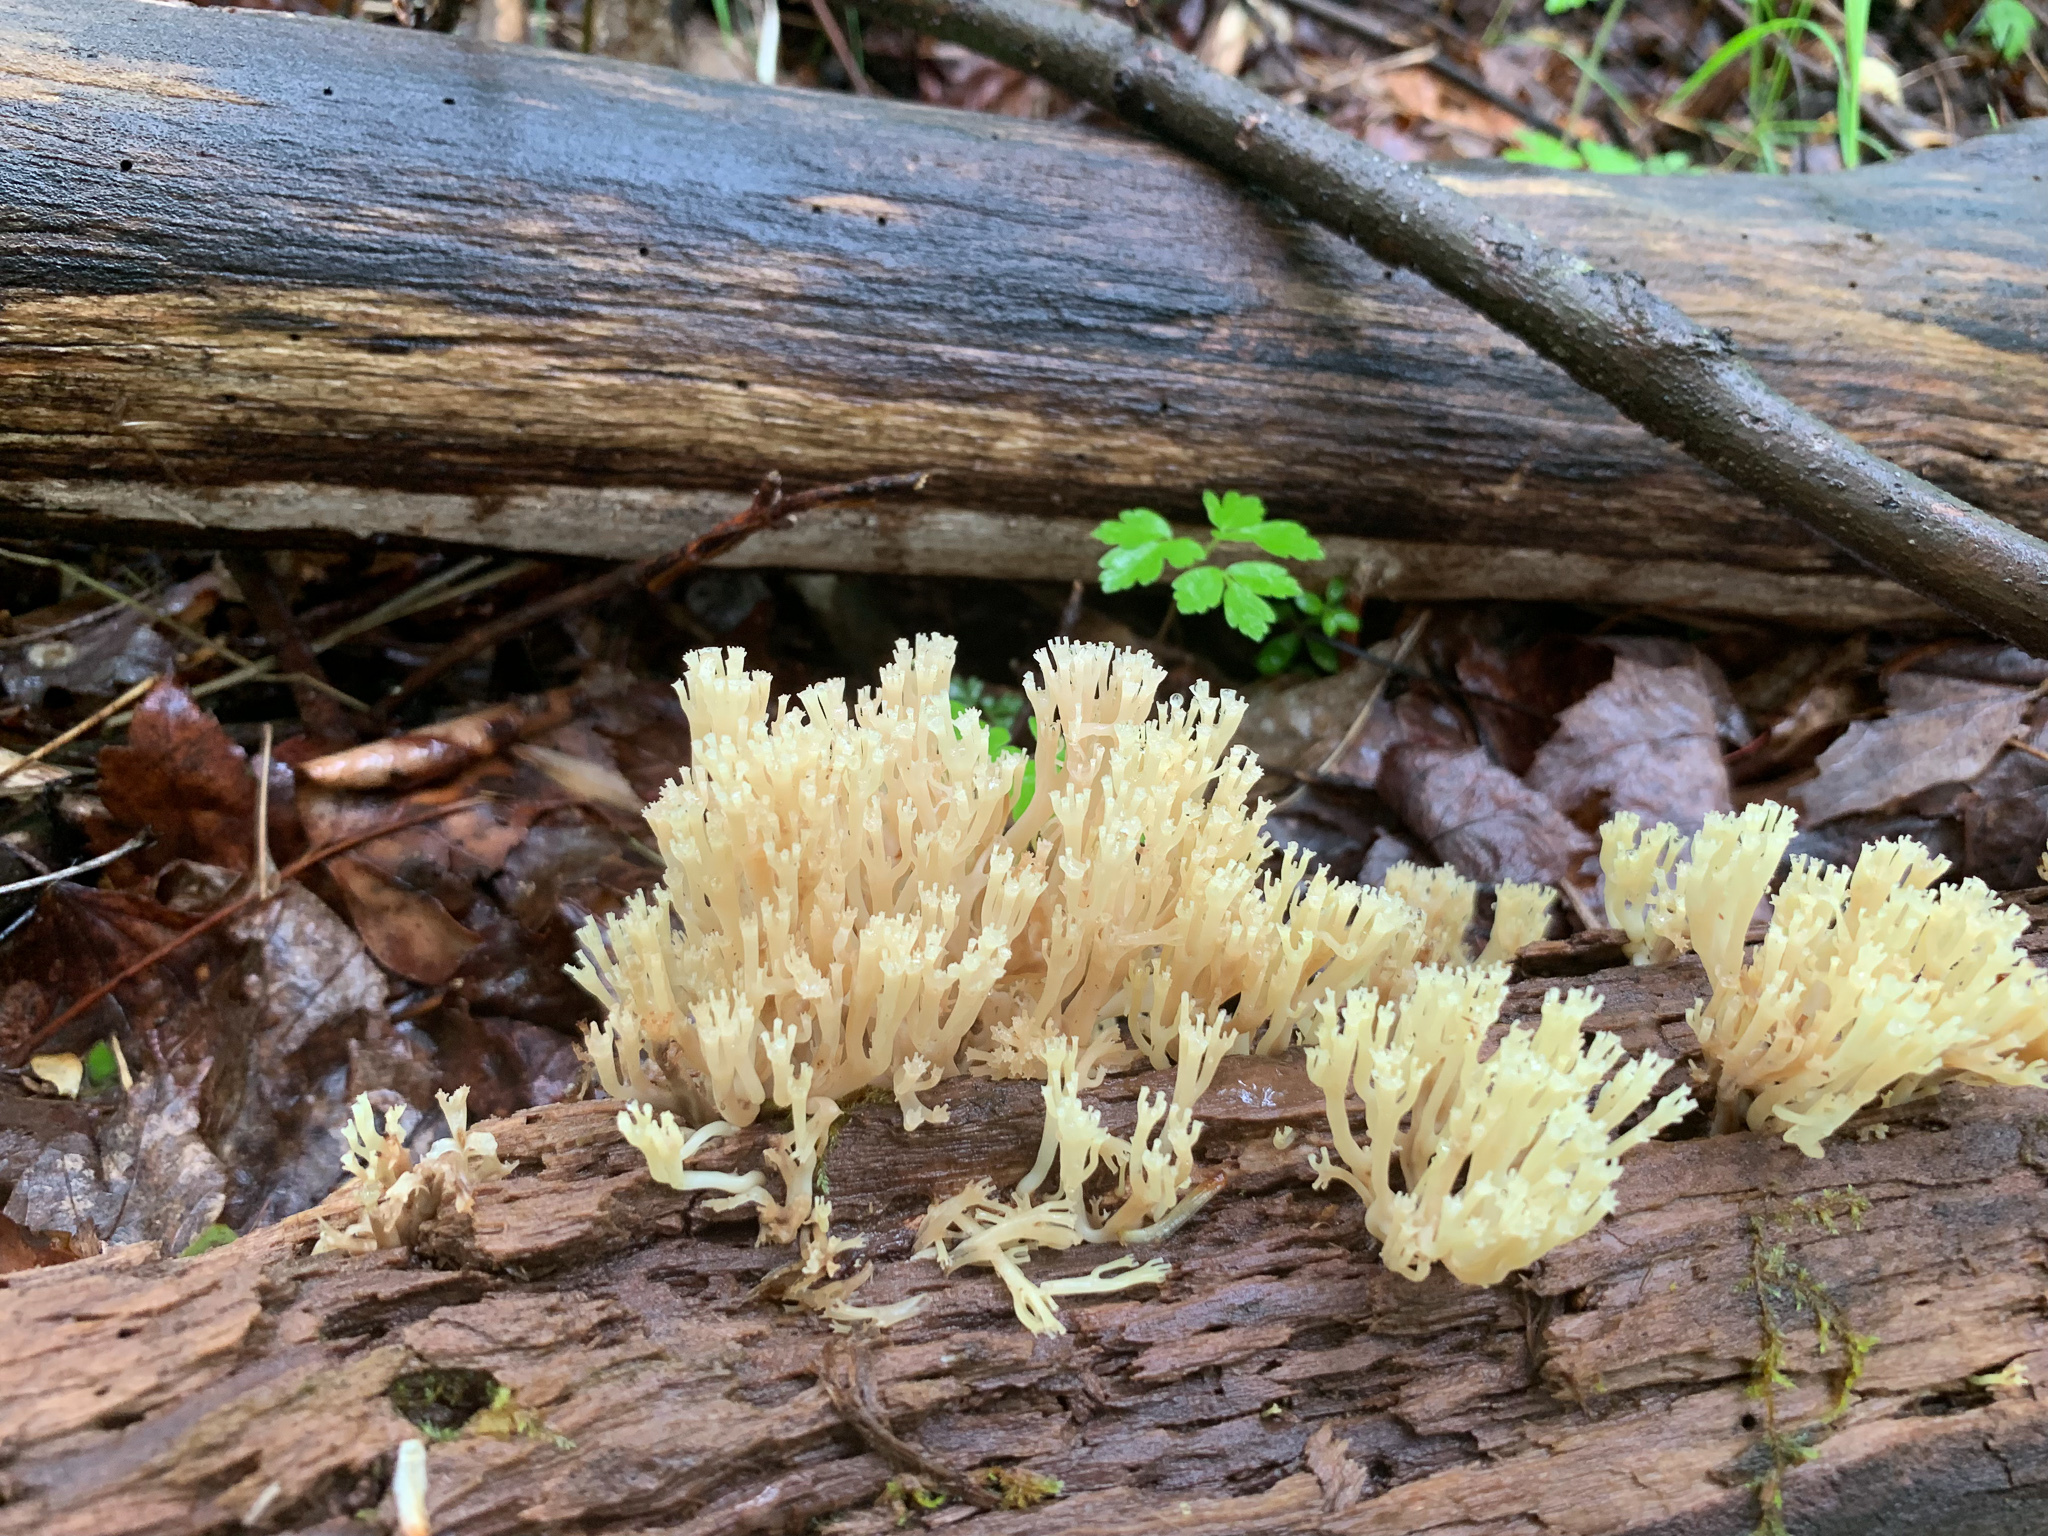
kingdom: Fungi
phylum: Basidiomycota
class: Agaricomycetes
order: Russulales
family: Auriscalpiaceae
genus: Artomyces
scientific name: Artomyces pyxidatus
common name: Crown-tipped coral fungus
